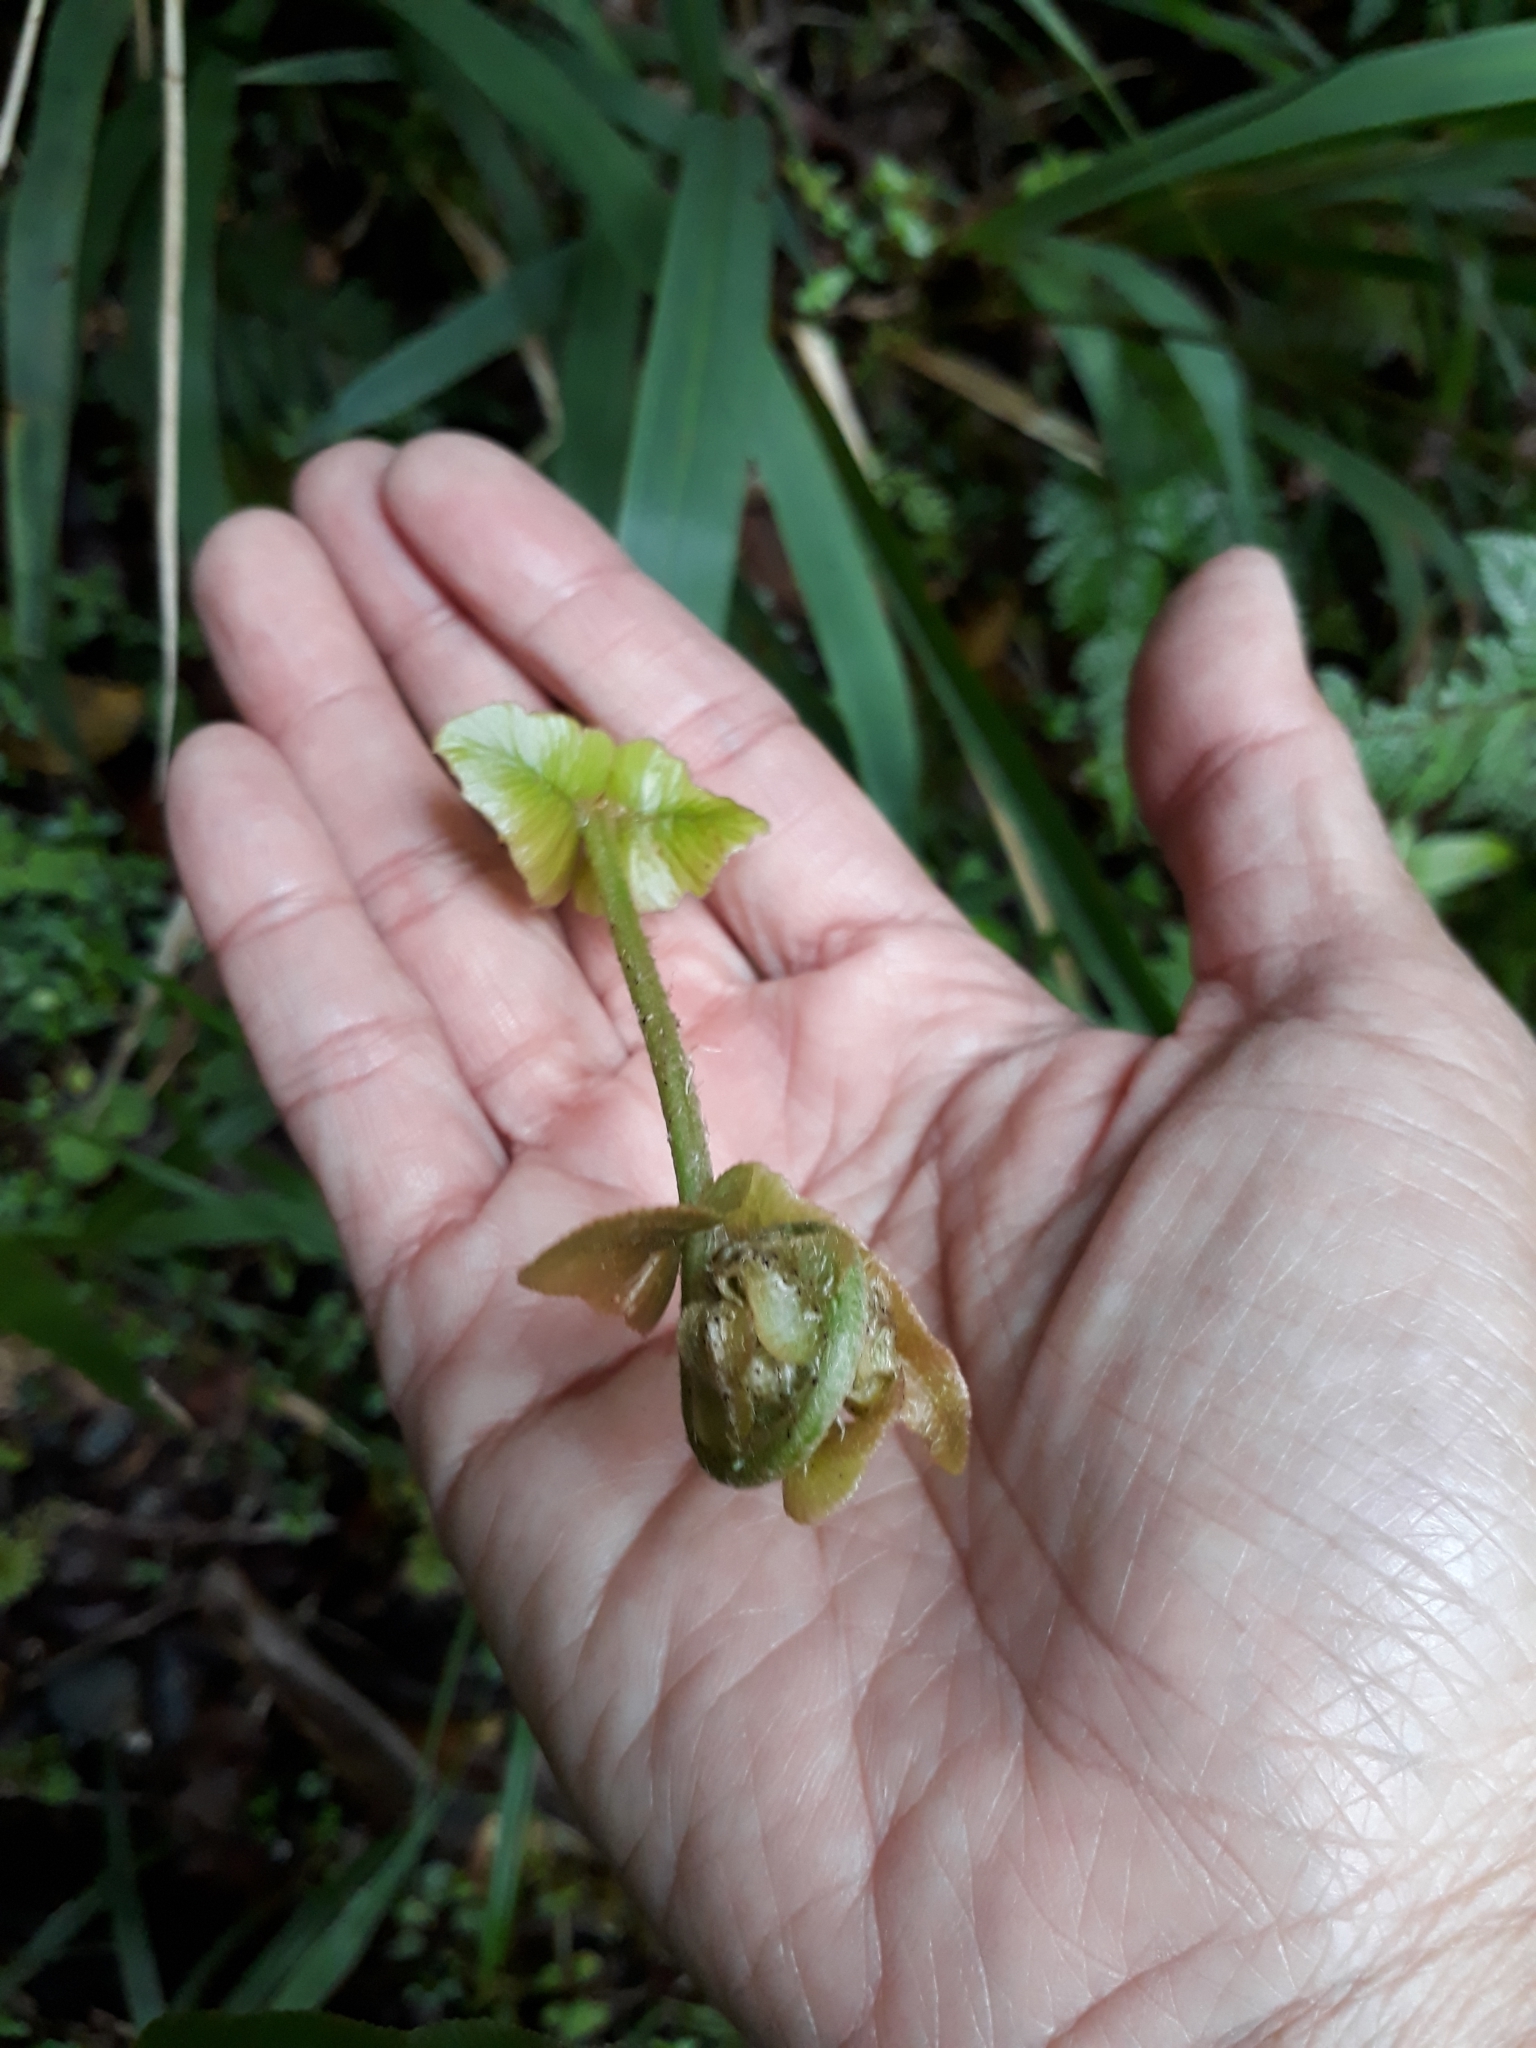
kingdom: Plantae
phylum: Tracheophyta
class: Polypodiopsida
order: Polypodiales
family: Blechnaceae
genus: Parablechnum
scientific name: Parablechnum novae-zelandiae
